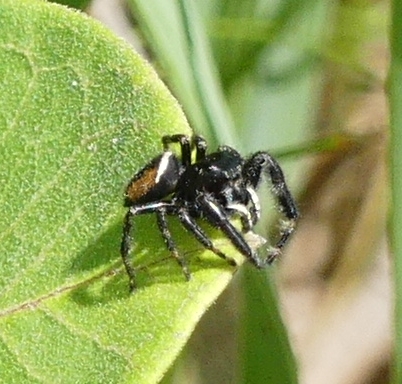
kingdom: Animalia
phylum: Arthropoda
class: Arachnida
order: Araneae
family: Salticidae
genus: Phidippus
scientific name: Phidippus clarus
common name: Brilliant jumping spider
